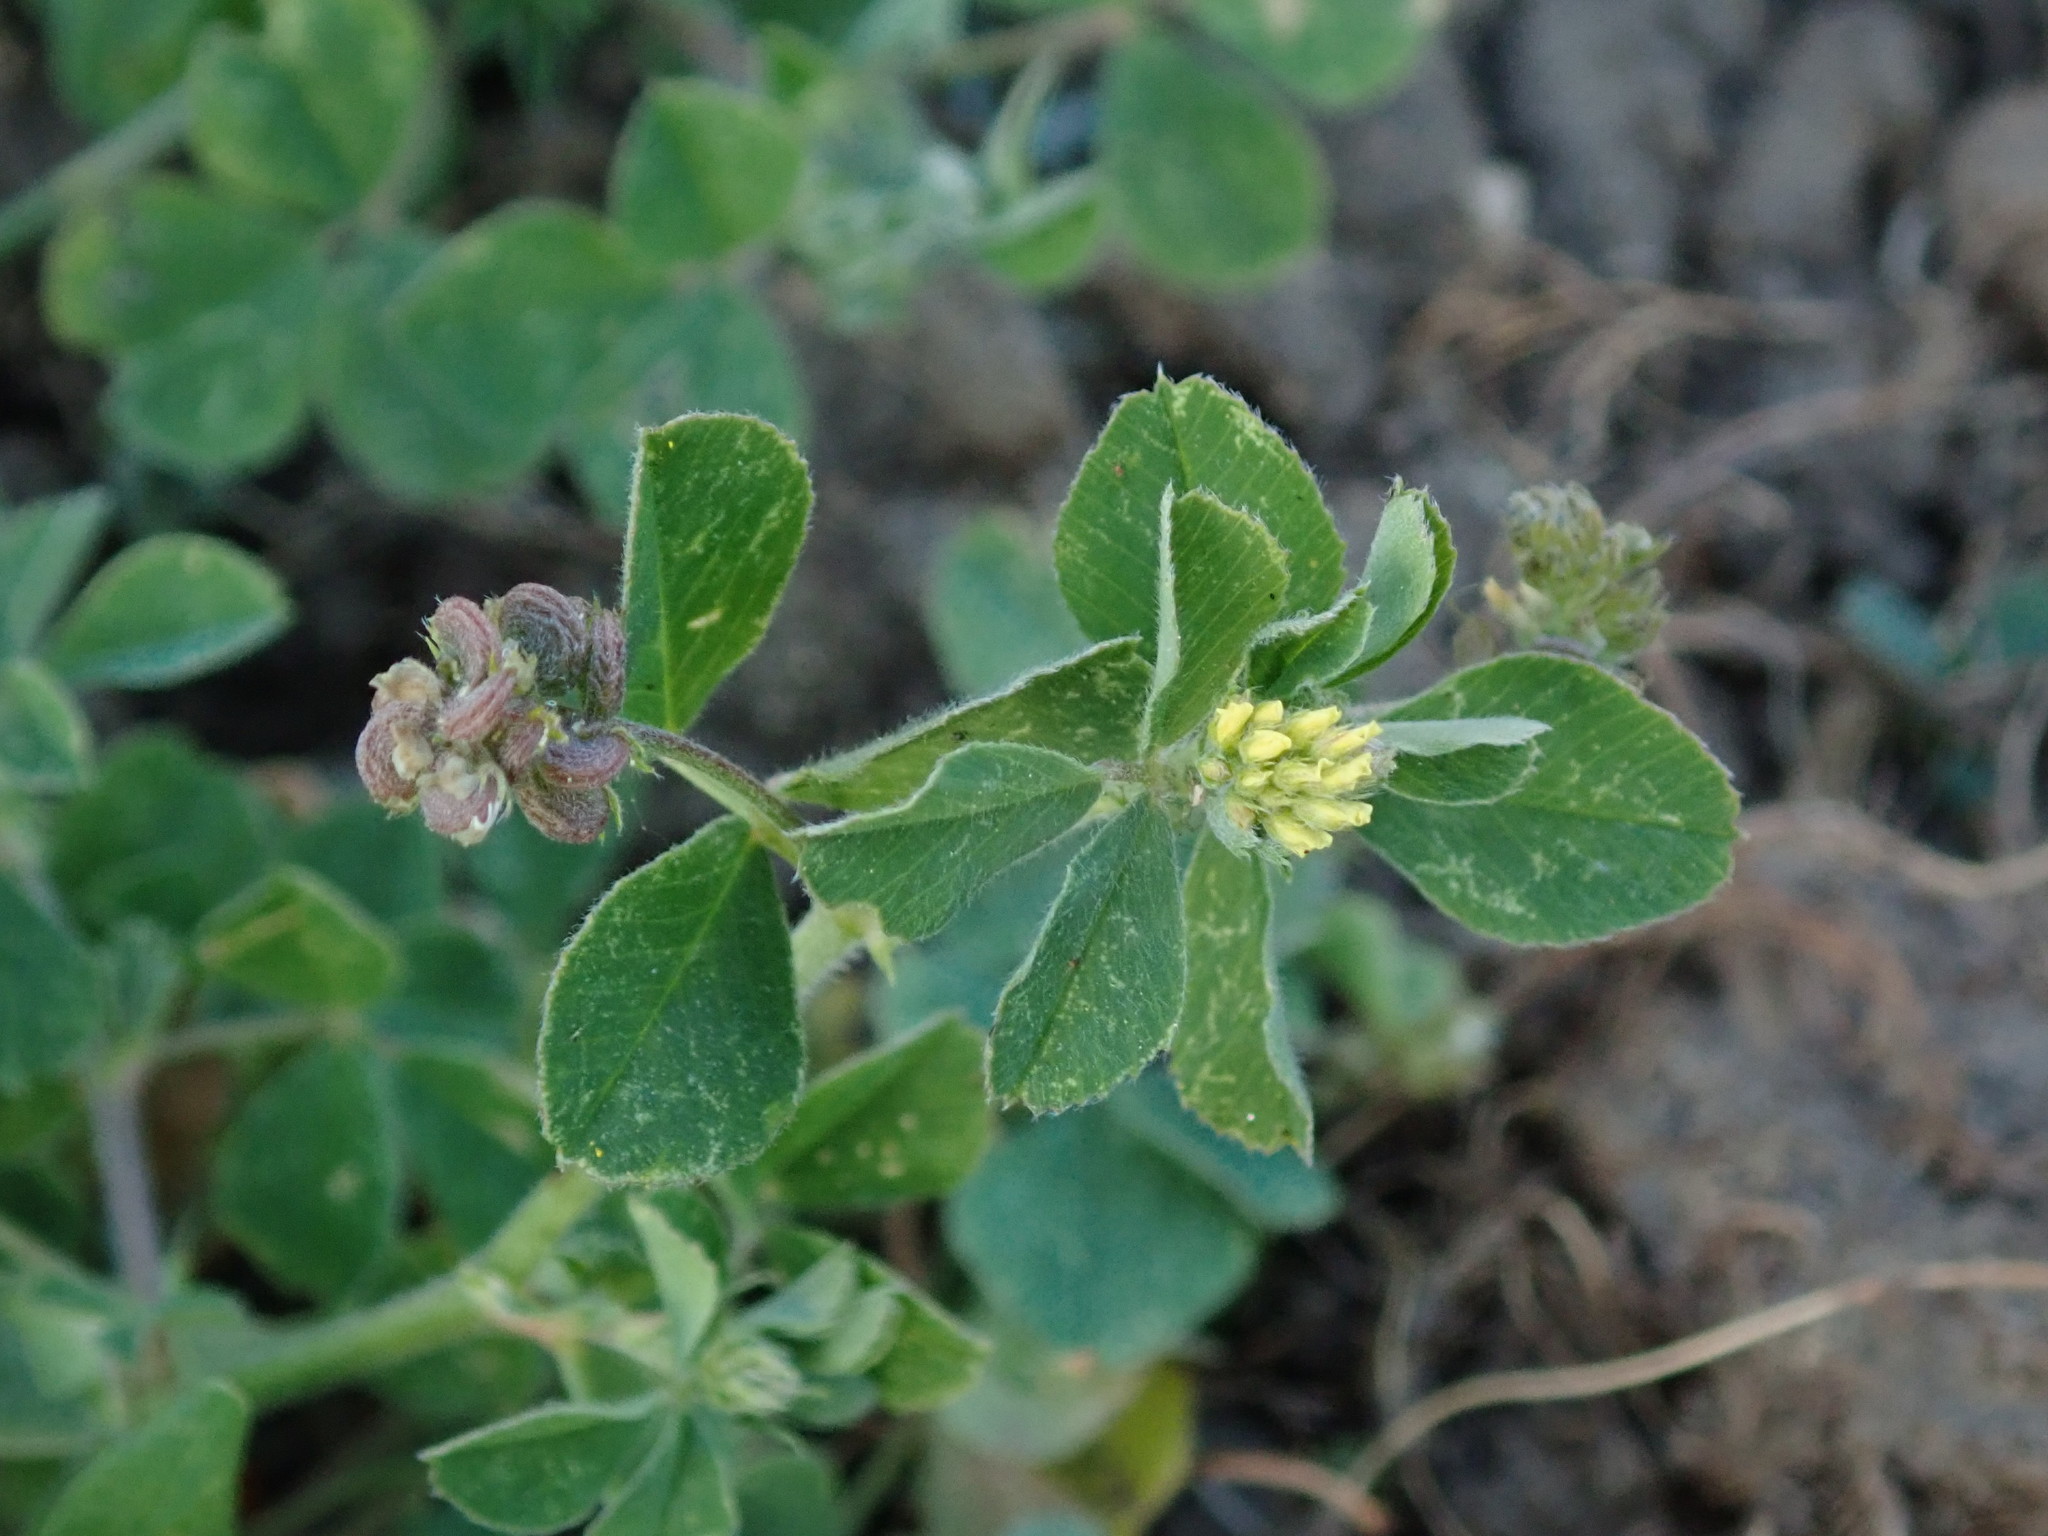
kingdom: Plantae
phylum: Tracheophyta
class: Magnoliopsida
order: Fabales
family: Fabaceae
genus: Medicago
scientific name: Medicago lupulina
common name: Black medick
